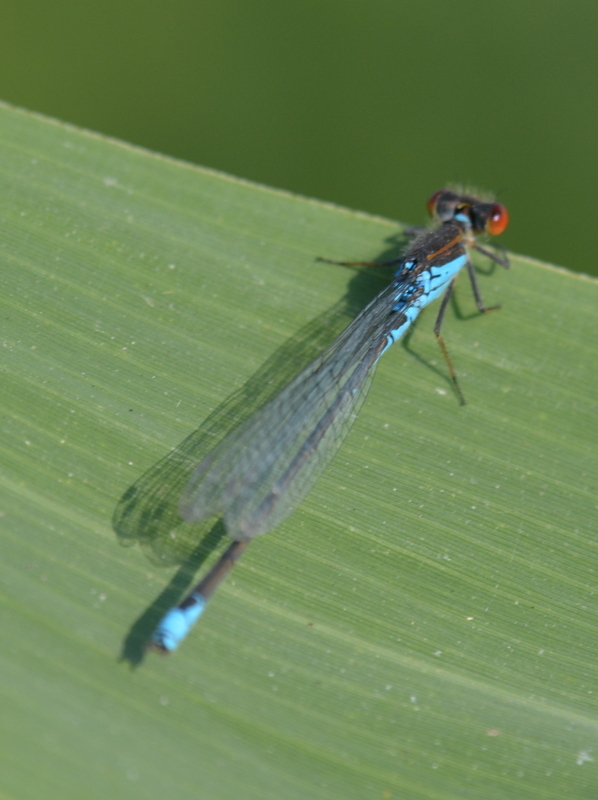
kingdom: Animalia
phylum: Arthropoda
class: Insecta
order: Odonata
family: Coenagrionidae
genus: Erythromma
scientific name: Erythromma viridulum
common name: Small red-eyed damselfly
